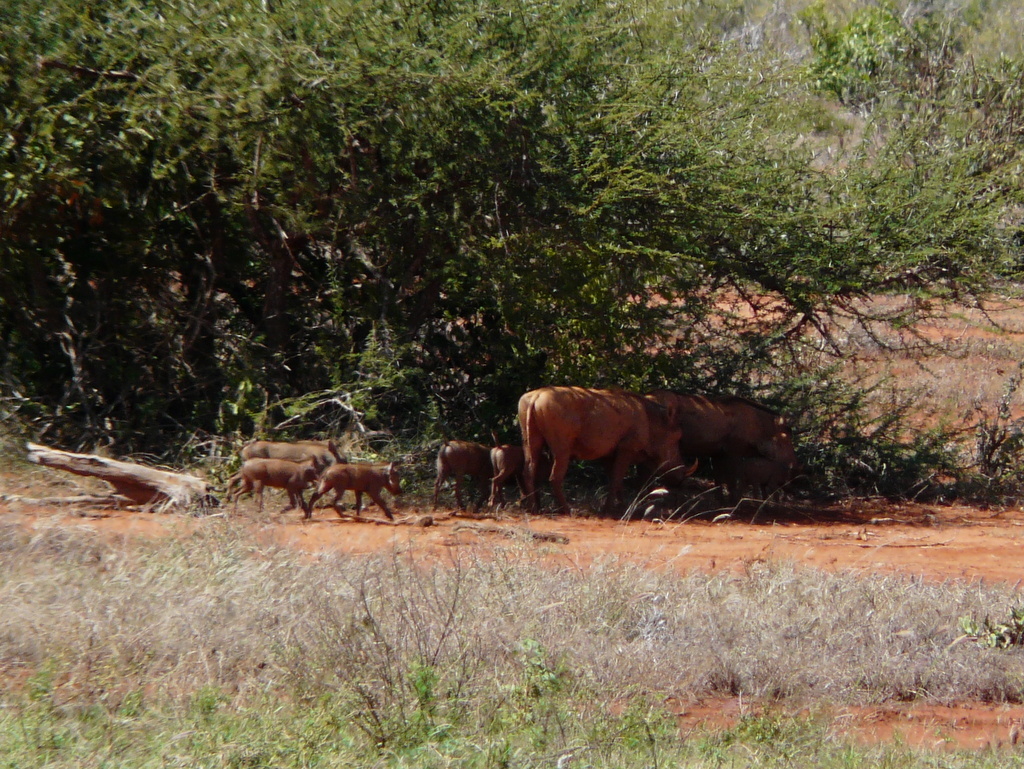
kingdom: Animalia
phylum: Chordata
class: Mammalia
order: Artiodactyla
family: Suidae
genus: Phacochoerus
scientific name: Phacochoerus
